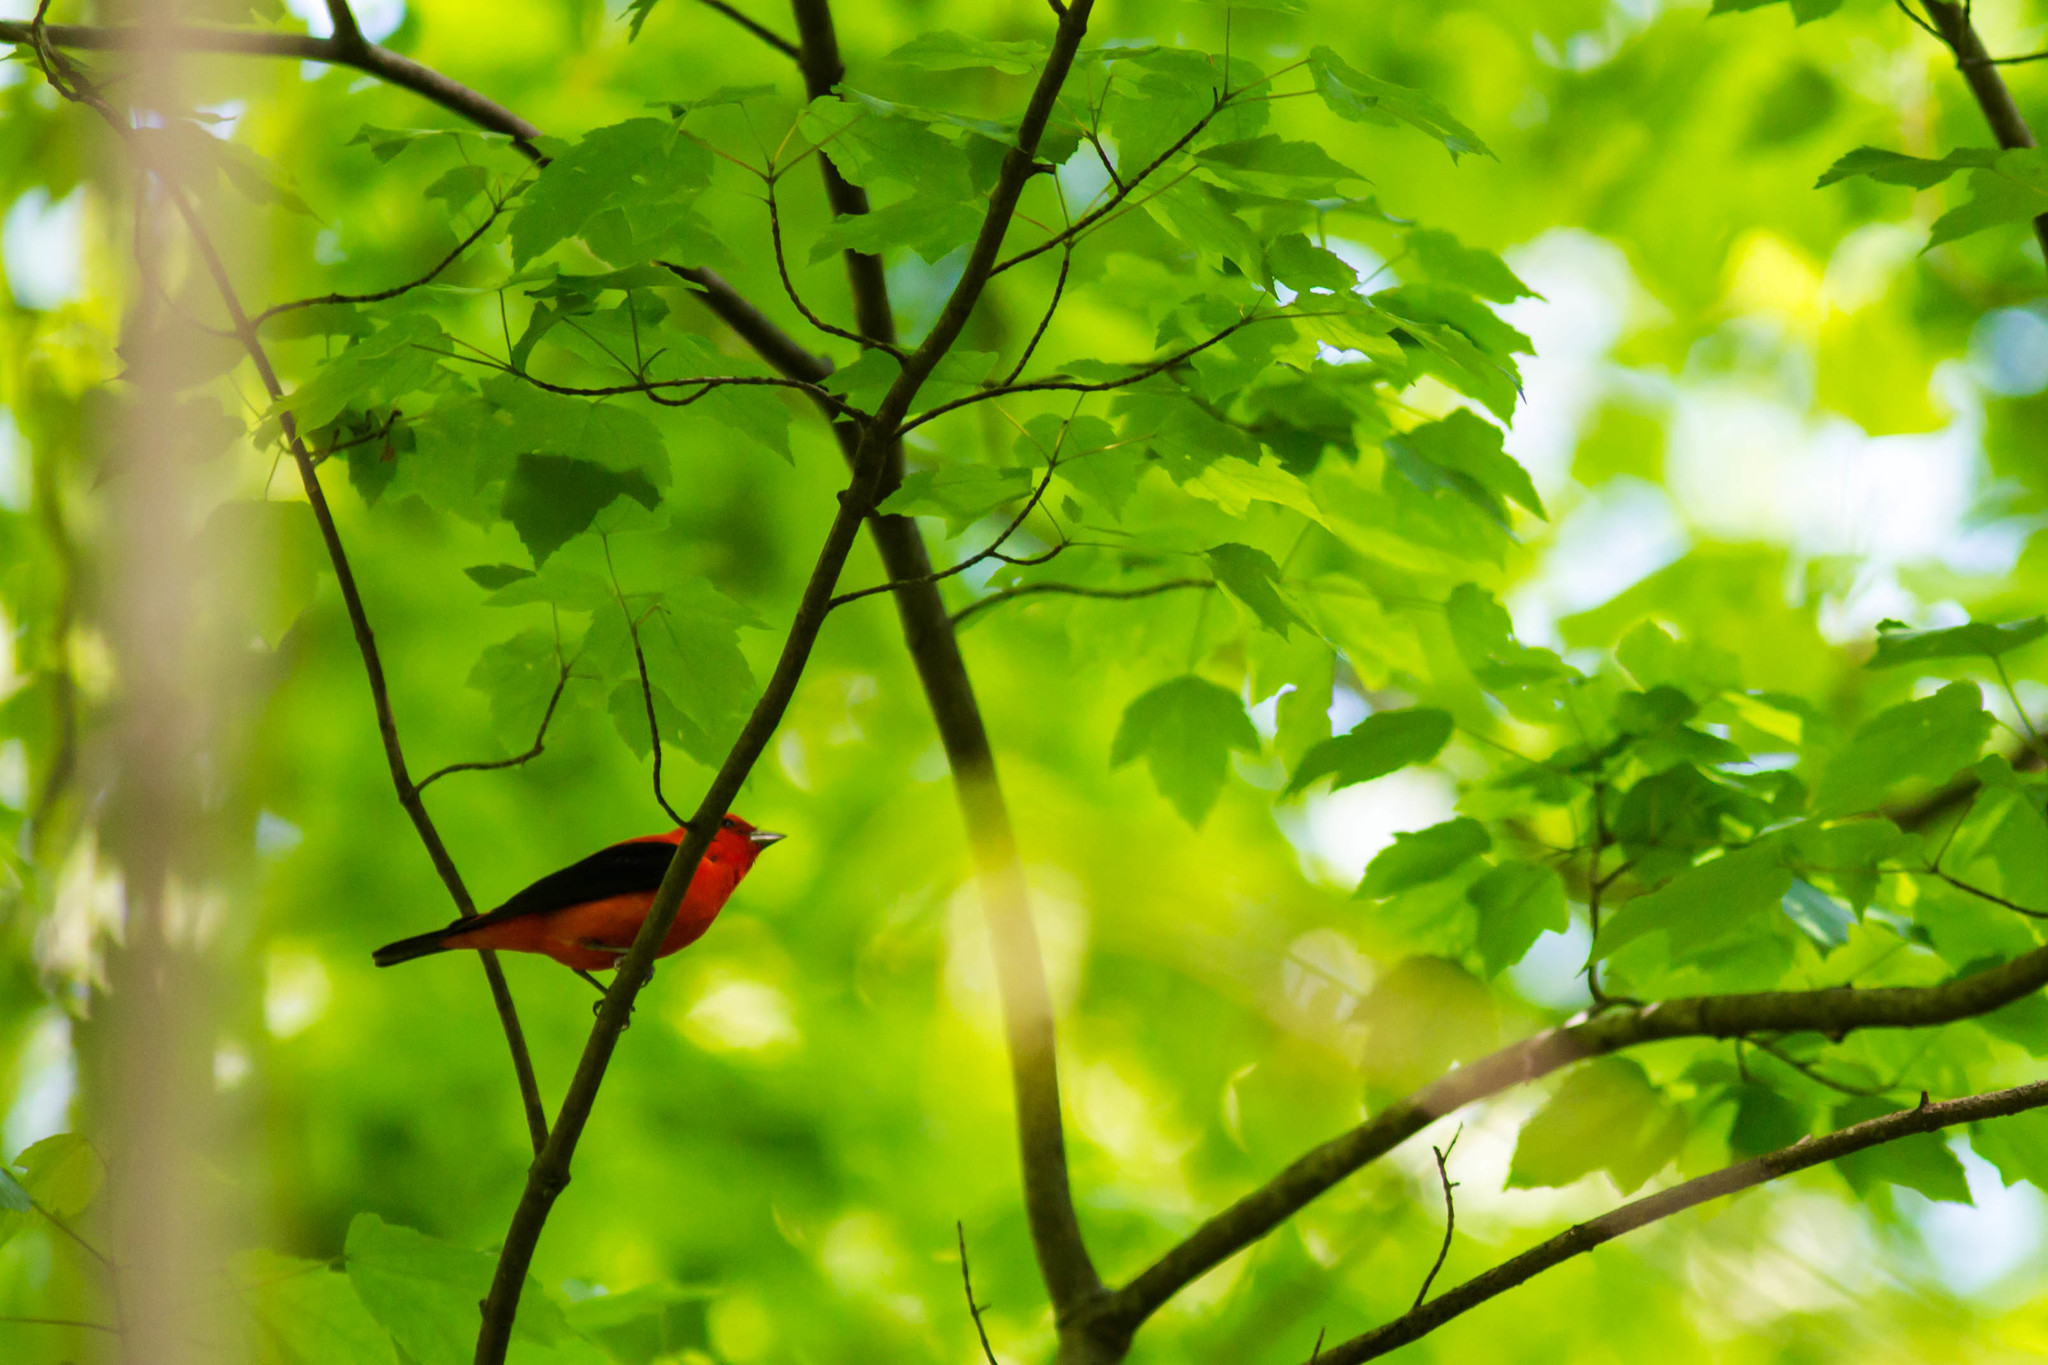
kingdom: Animalia
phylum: Chordata
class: Aves
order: Passeriformes
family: Cardinalidae
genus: Piranga
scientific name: Piranga olivacea
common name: Scarlet tanager
